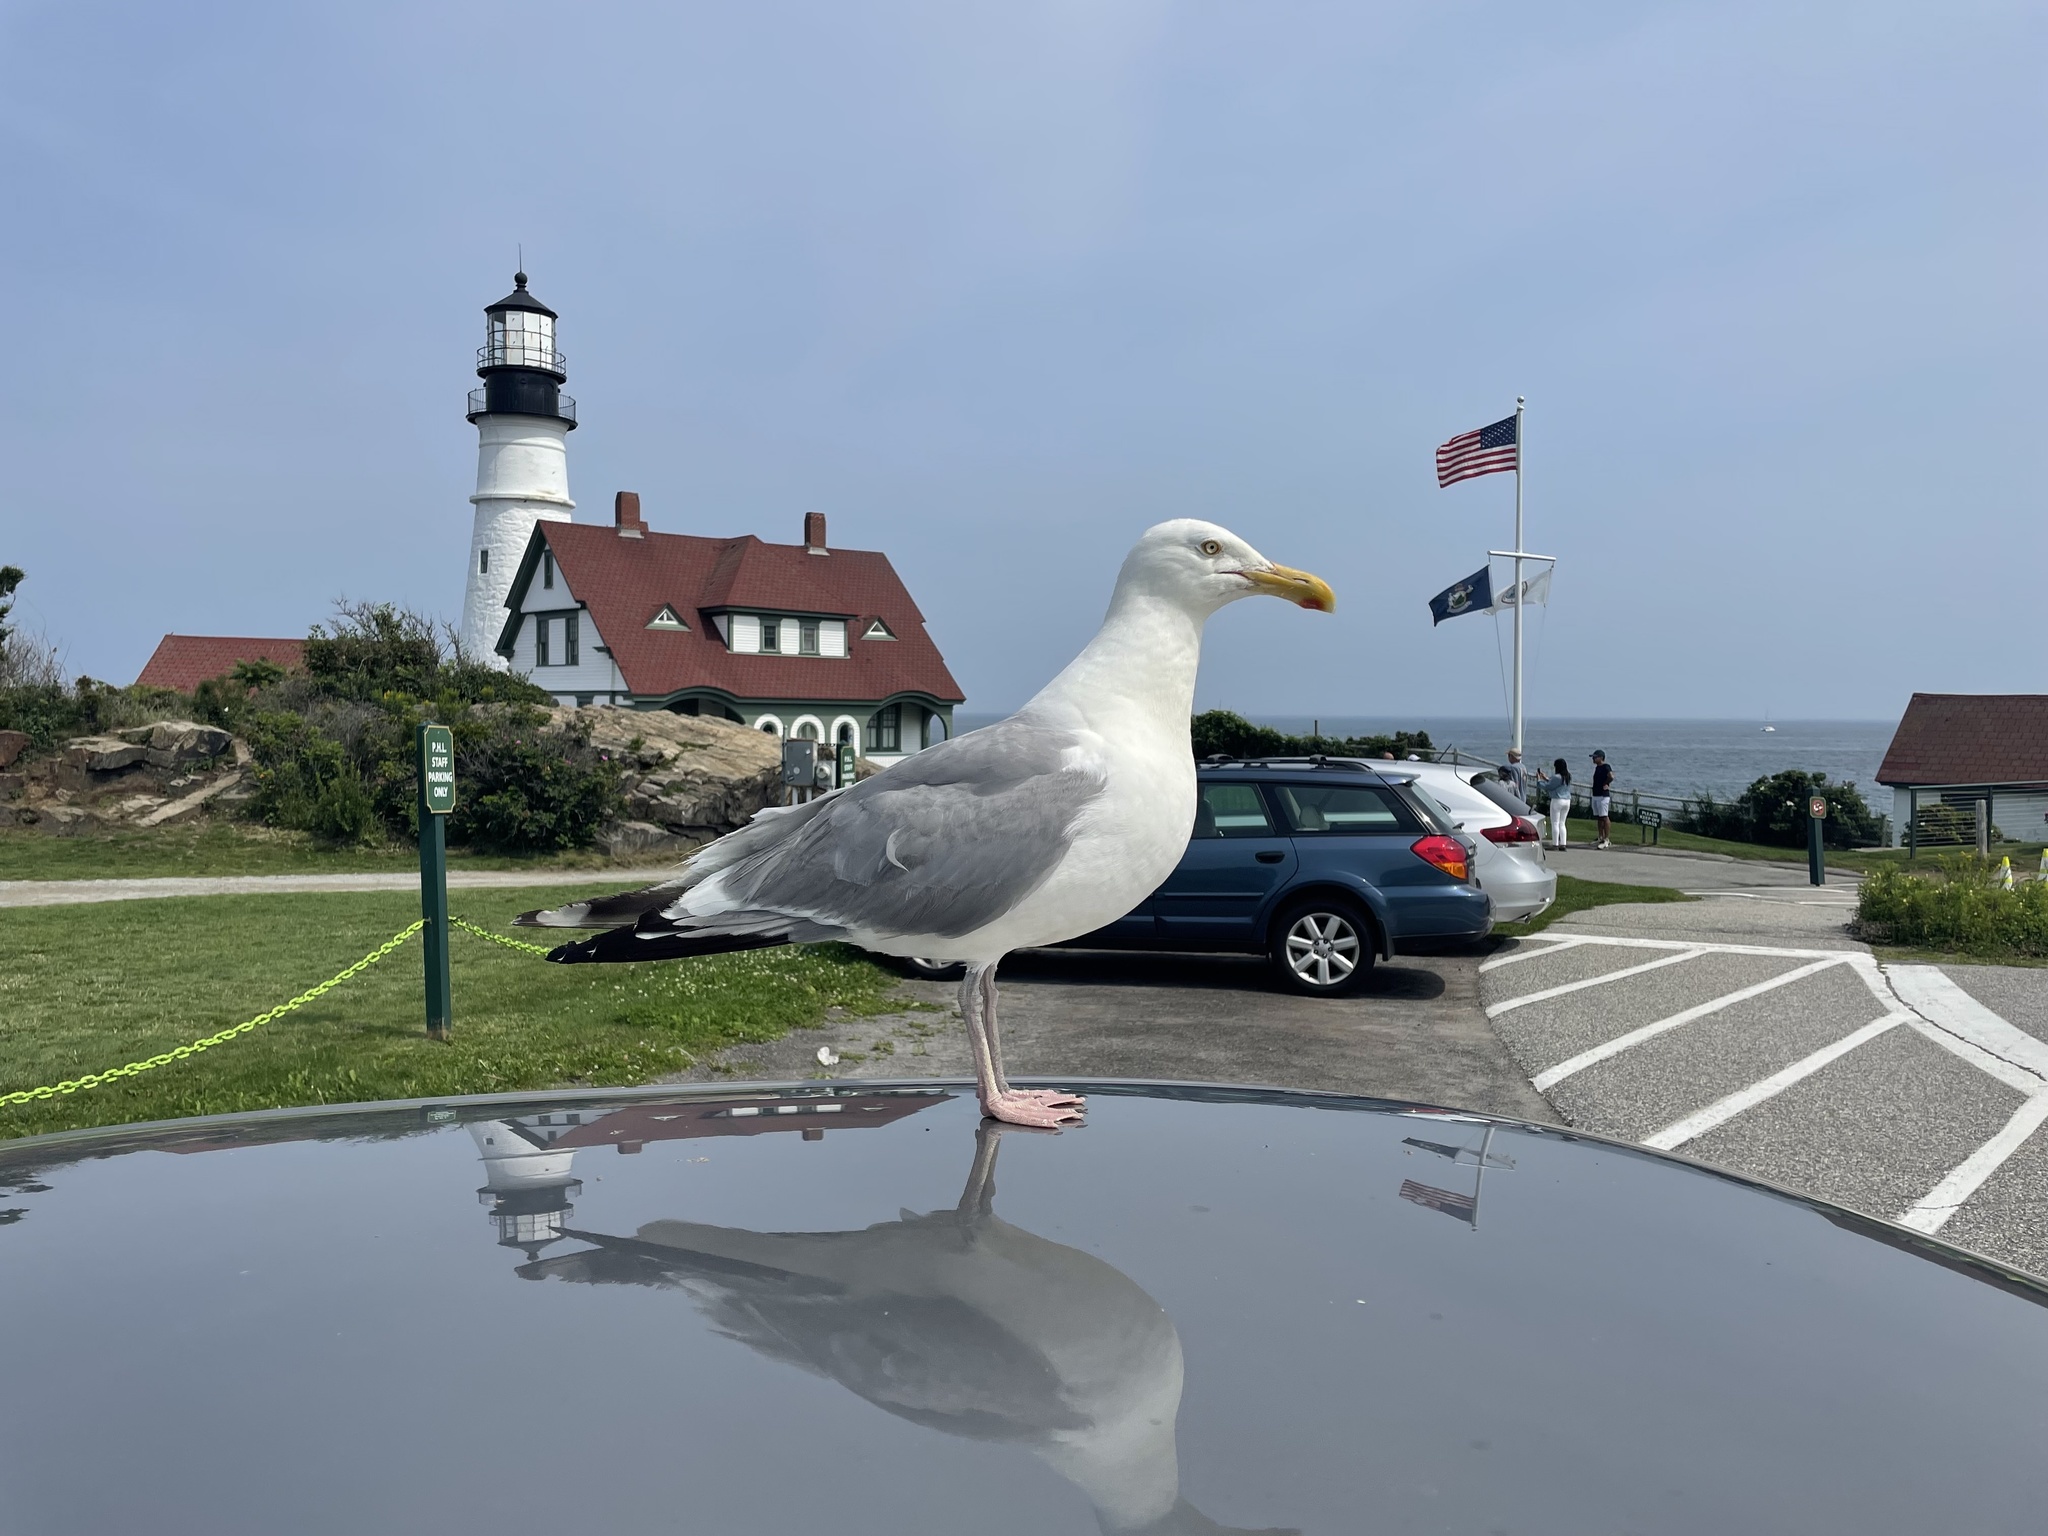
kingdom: Animalia
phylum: Chordata
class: Aves
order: Charadriiformes
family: Laridae
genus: Larus
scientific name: Larus argentatus
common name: Herring gull
